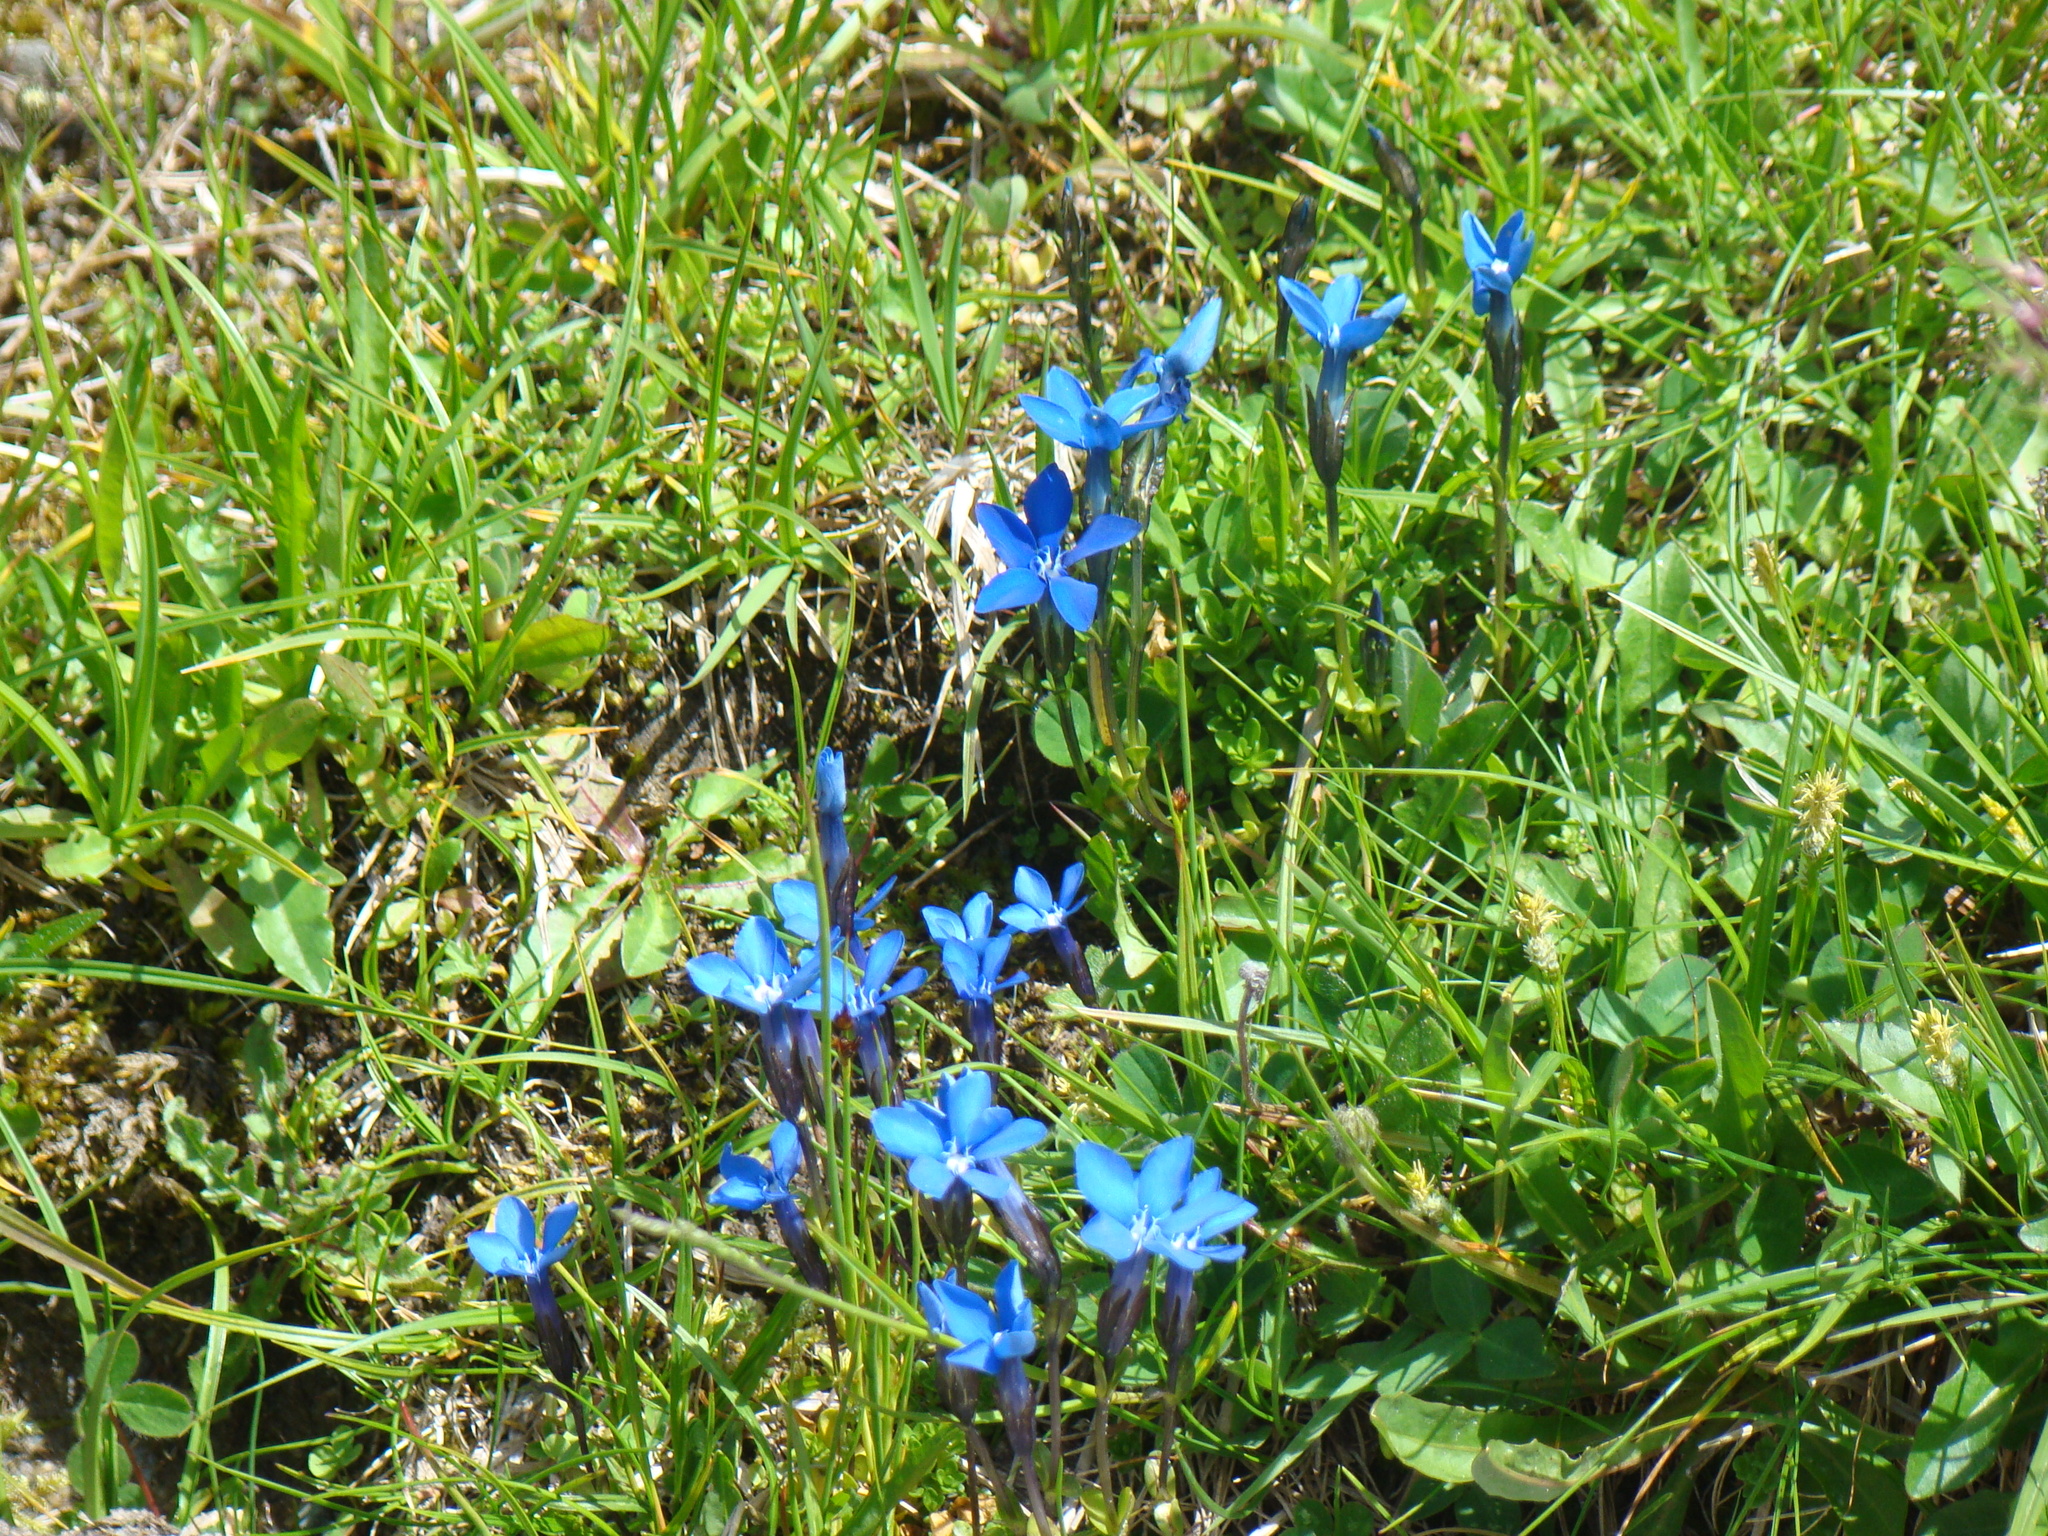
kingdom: Plantae
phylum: Tracheophyta
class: Magnoliopsida
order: Gentianales
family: Gentianaceae
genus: Gentiana
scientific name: Gentiana bavarica
